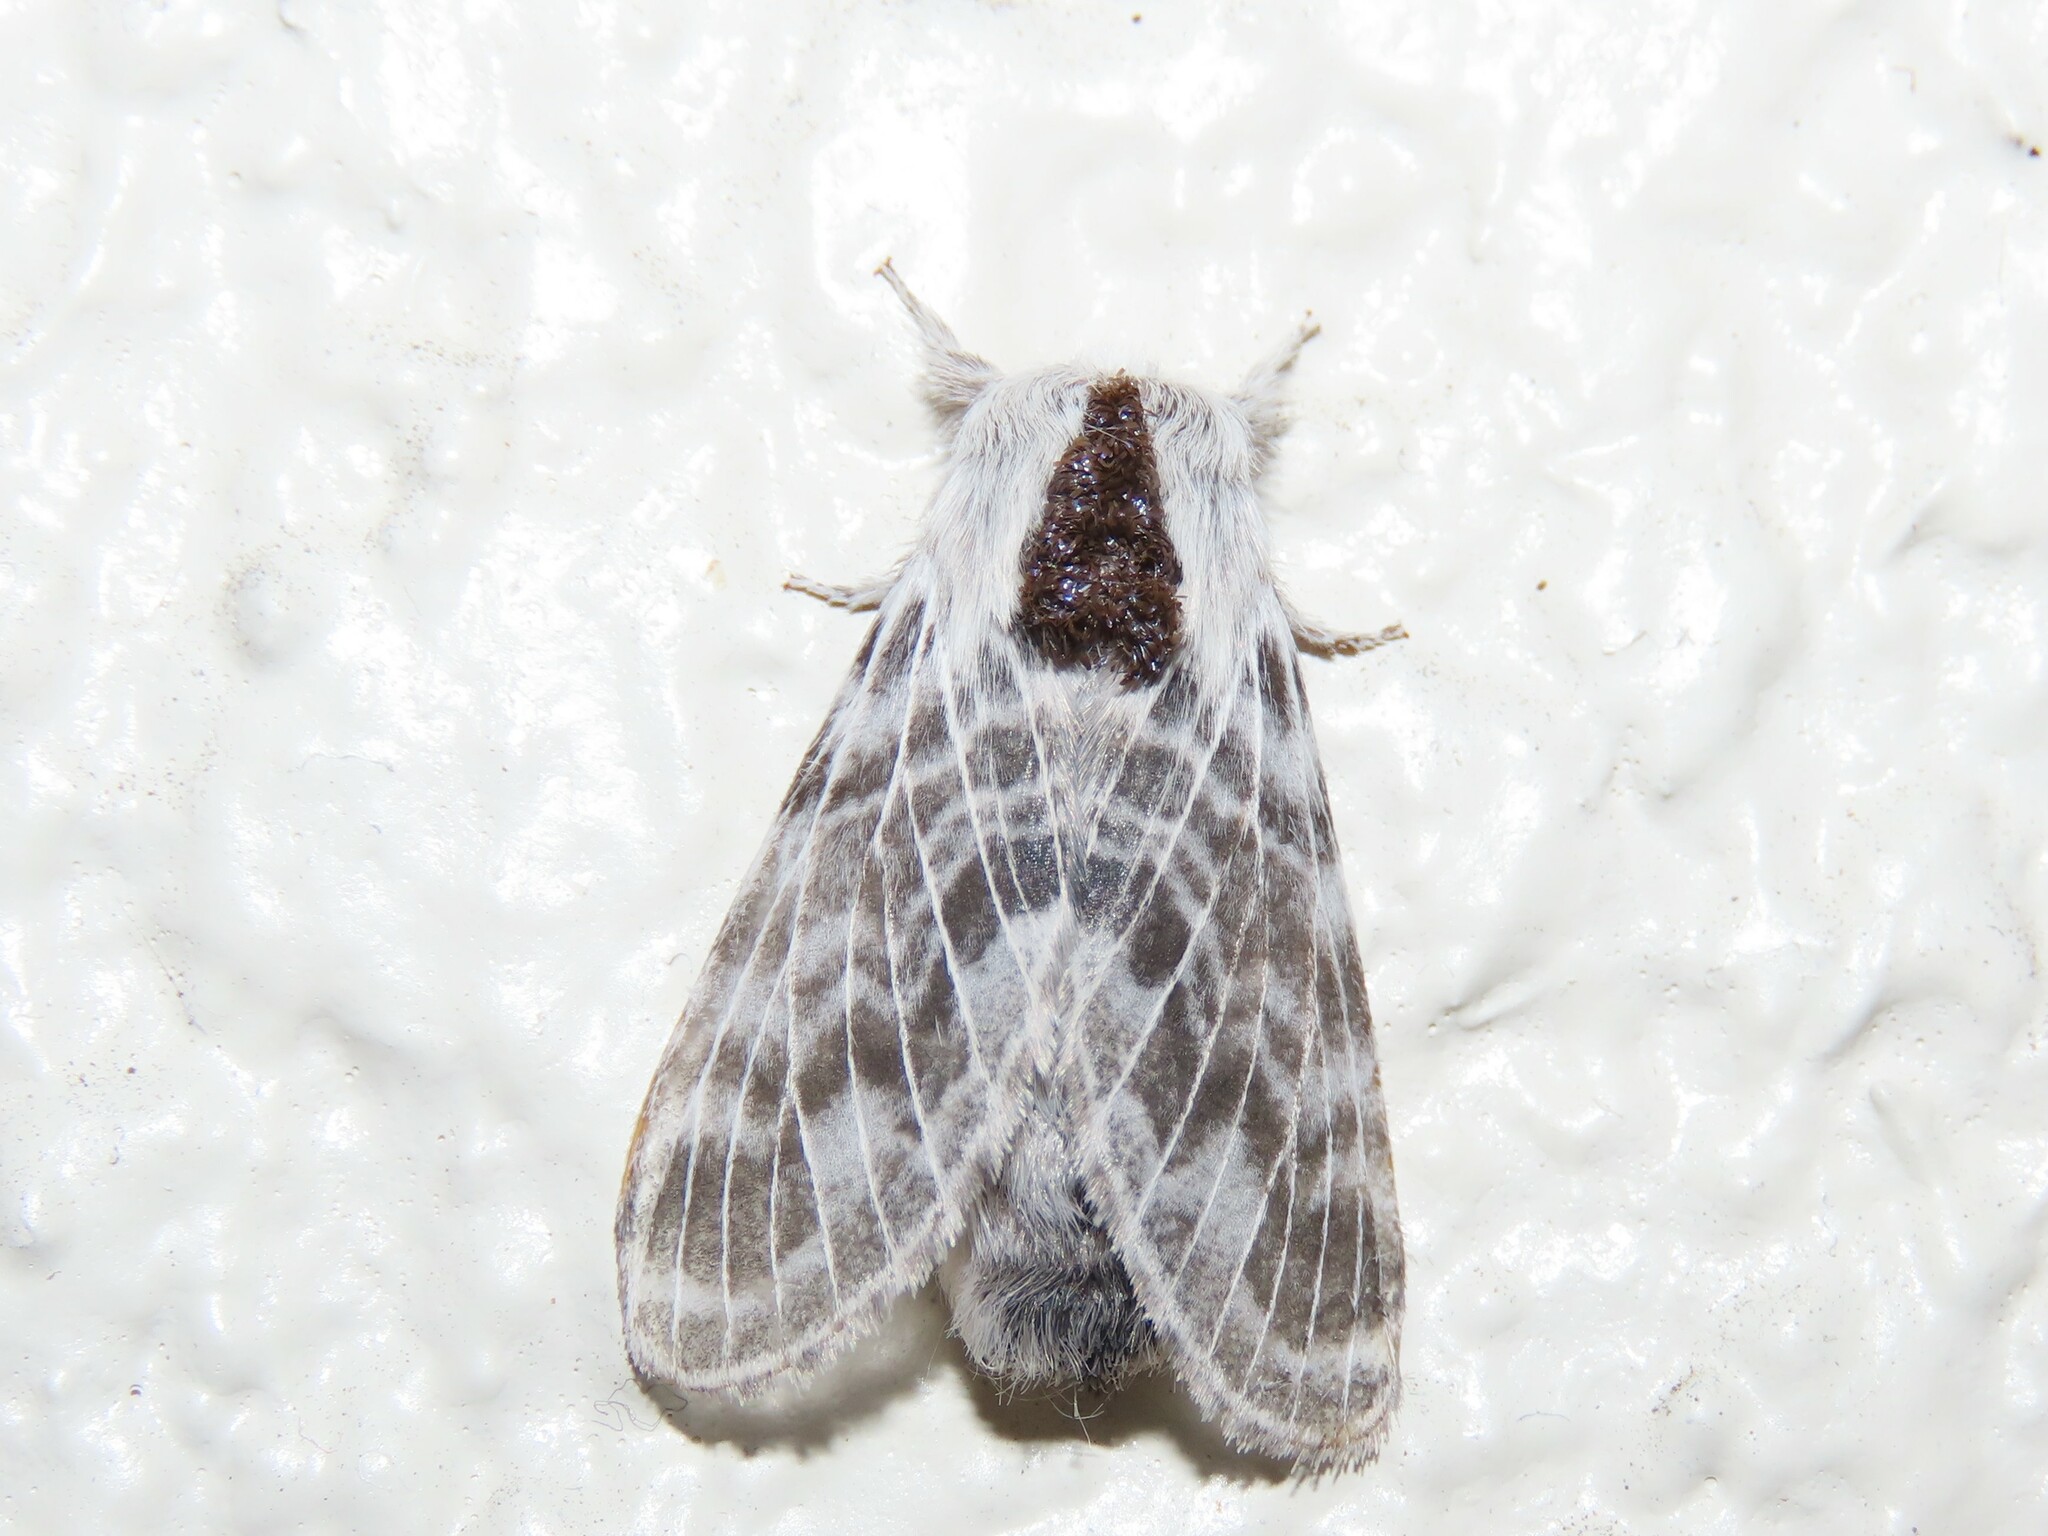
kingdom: Animalia
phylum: Arthropoda
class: Insecta
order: Lepidoptera
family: Lasiocampidae
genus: Tolype
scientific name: Tolype minta
